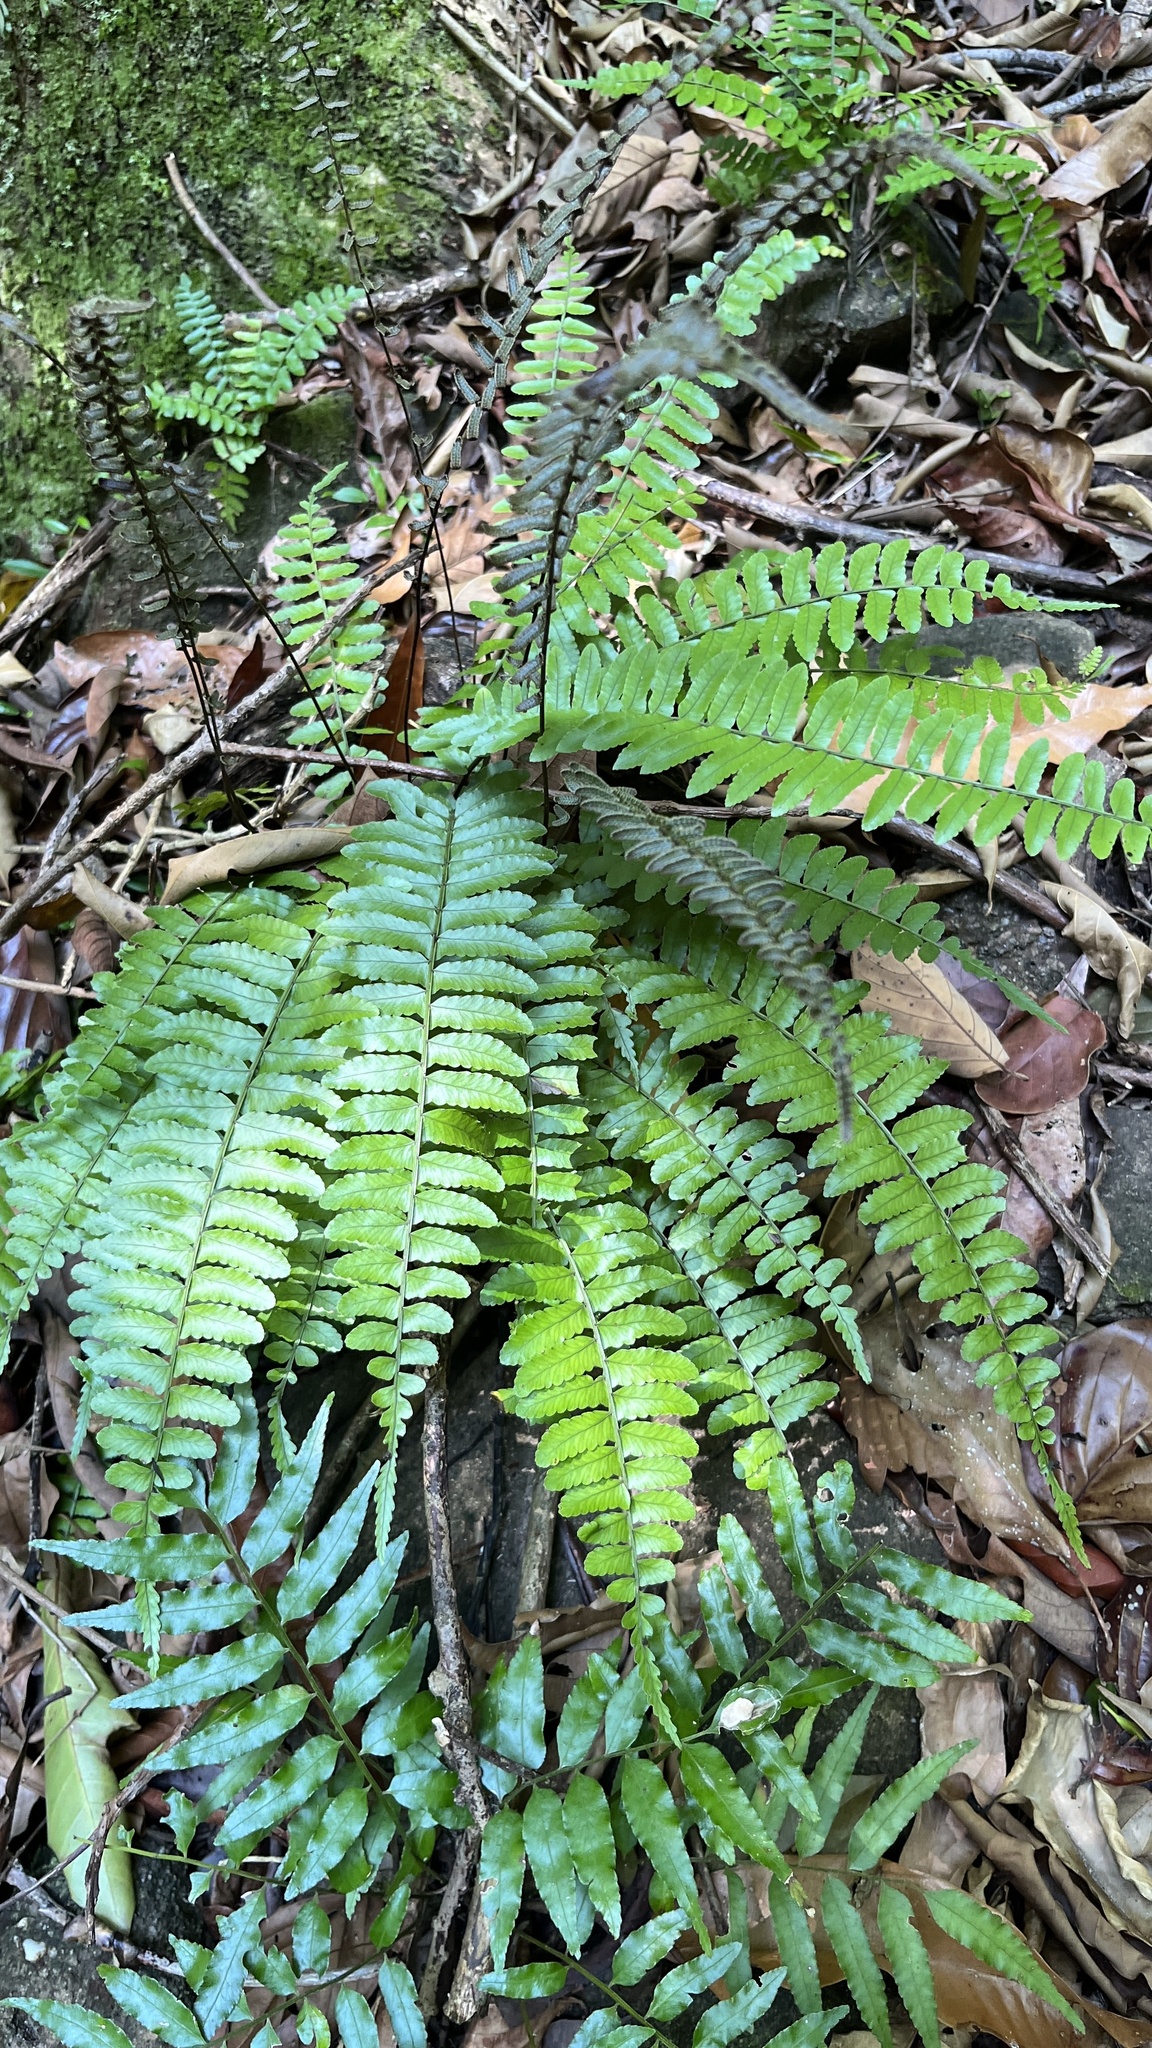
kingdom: Plantae
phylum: Tracheophyta
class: Polypodiopsida
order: Polypodiales
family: Dryopteridaceae
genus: Bolbitis
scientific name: Bolbitis appendiculata
